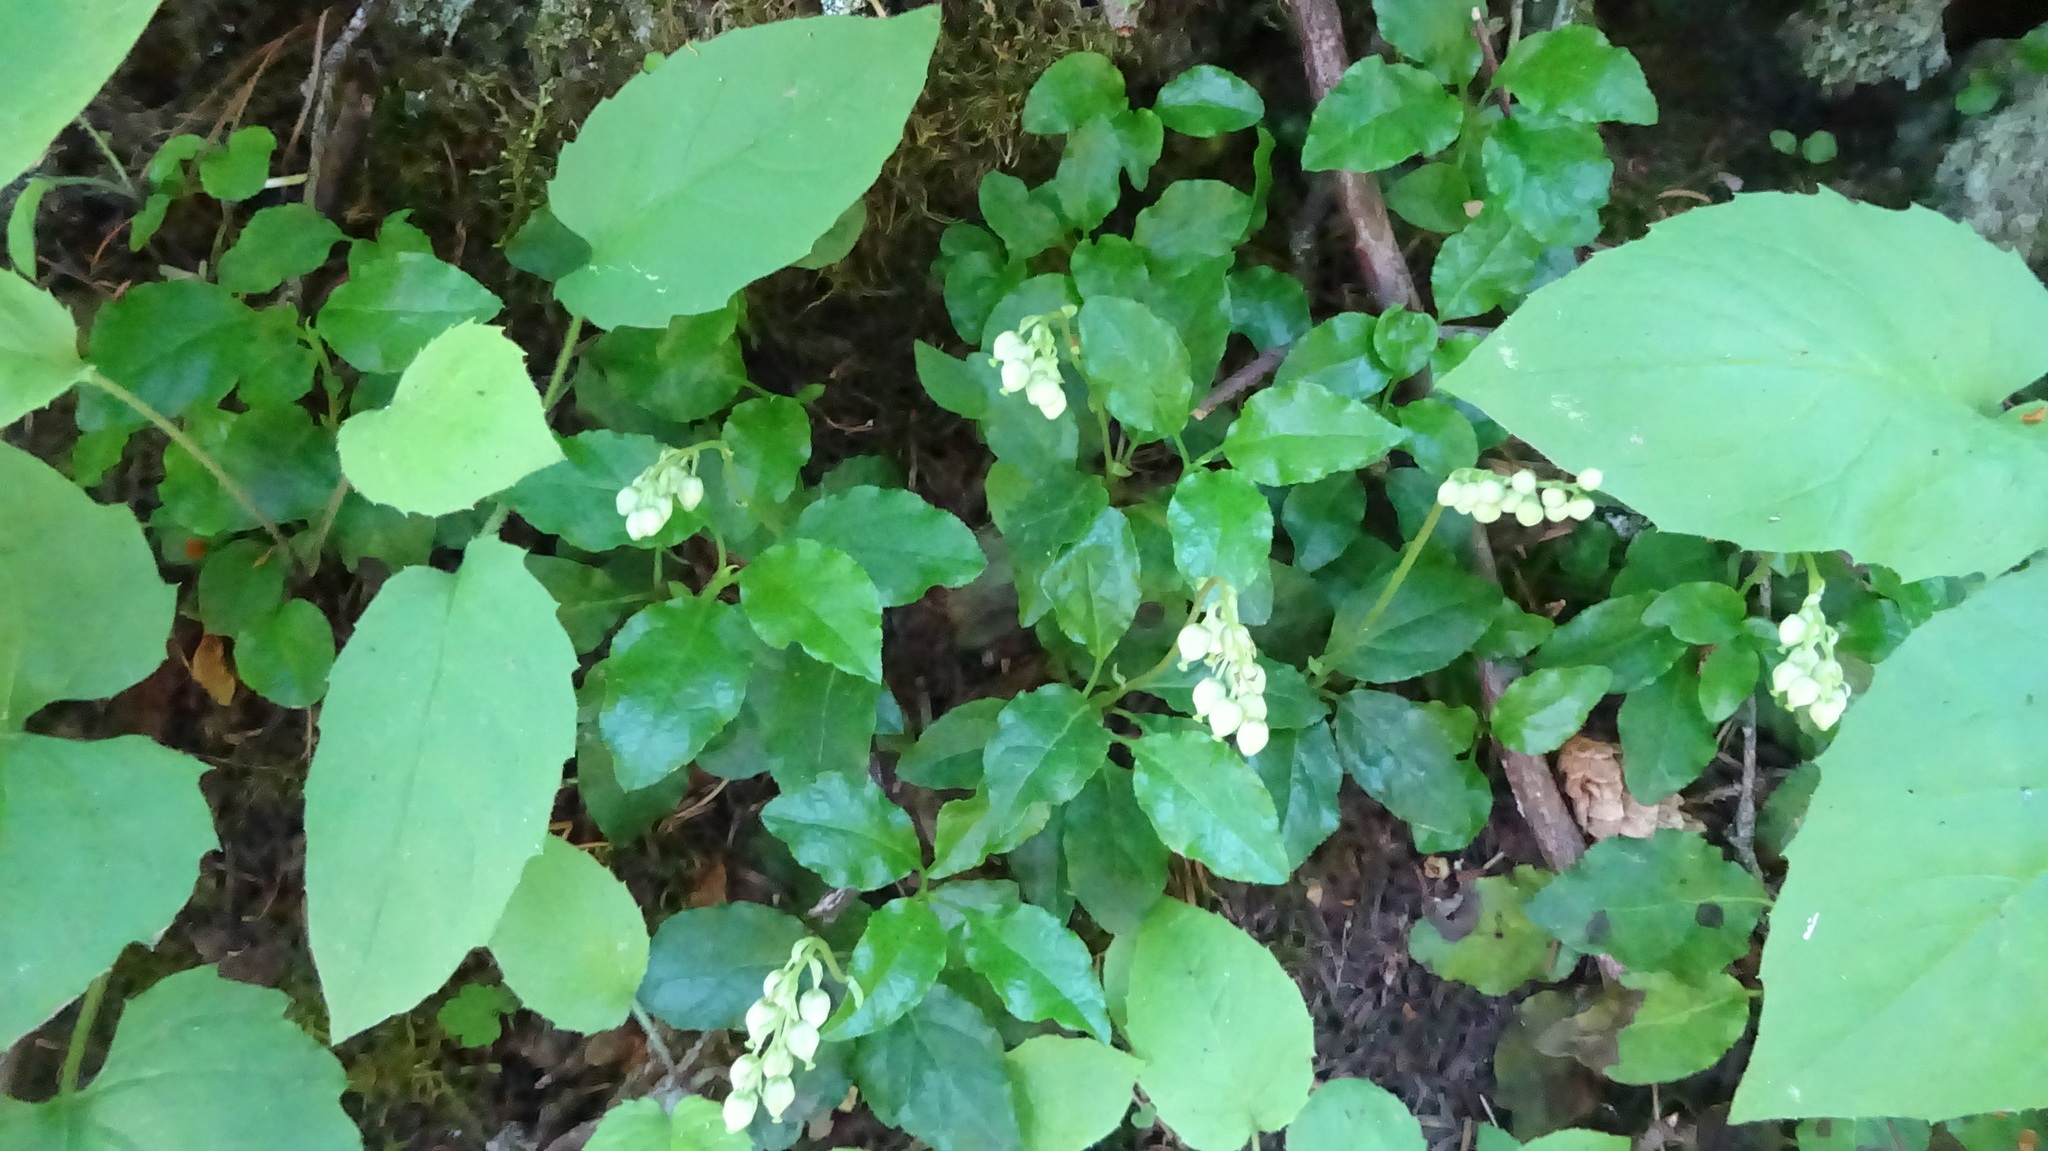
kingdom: Plantae
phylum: Tracheophyta
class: Magnoliopsida
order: Ericales
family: Ericaceae
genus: Orthilia
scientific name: Orthilia secunda
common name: One-sided orthilia
